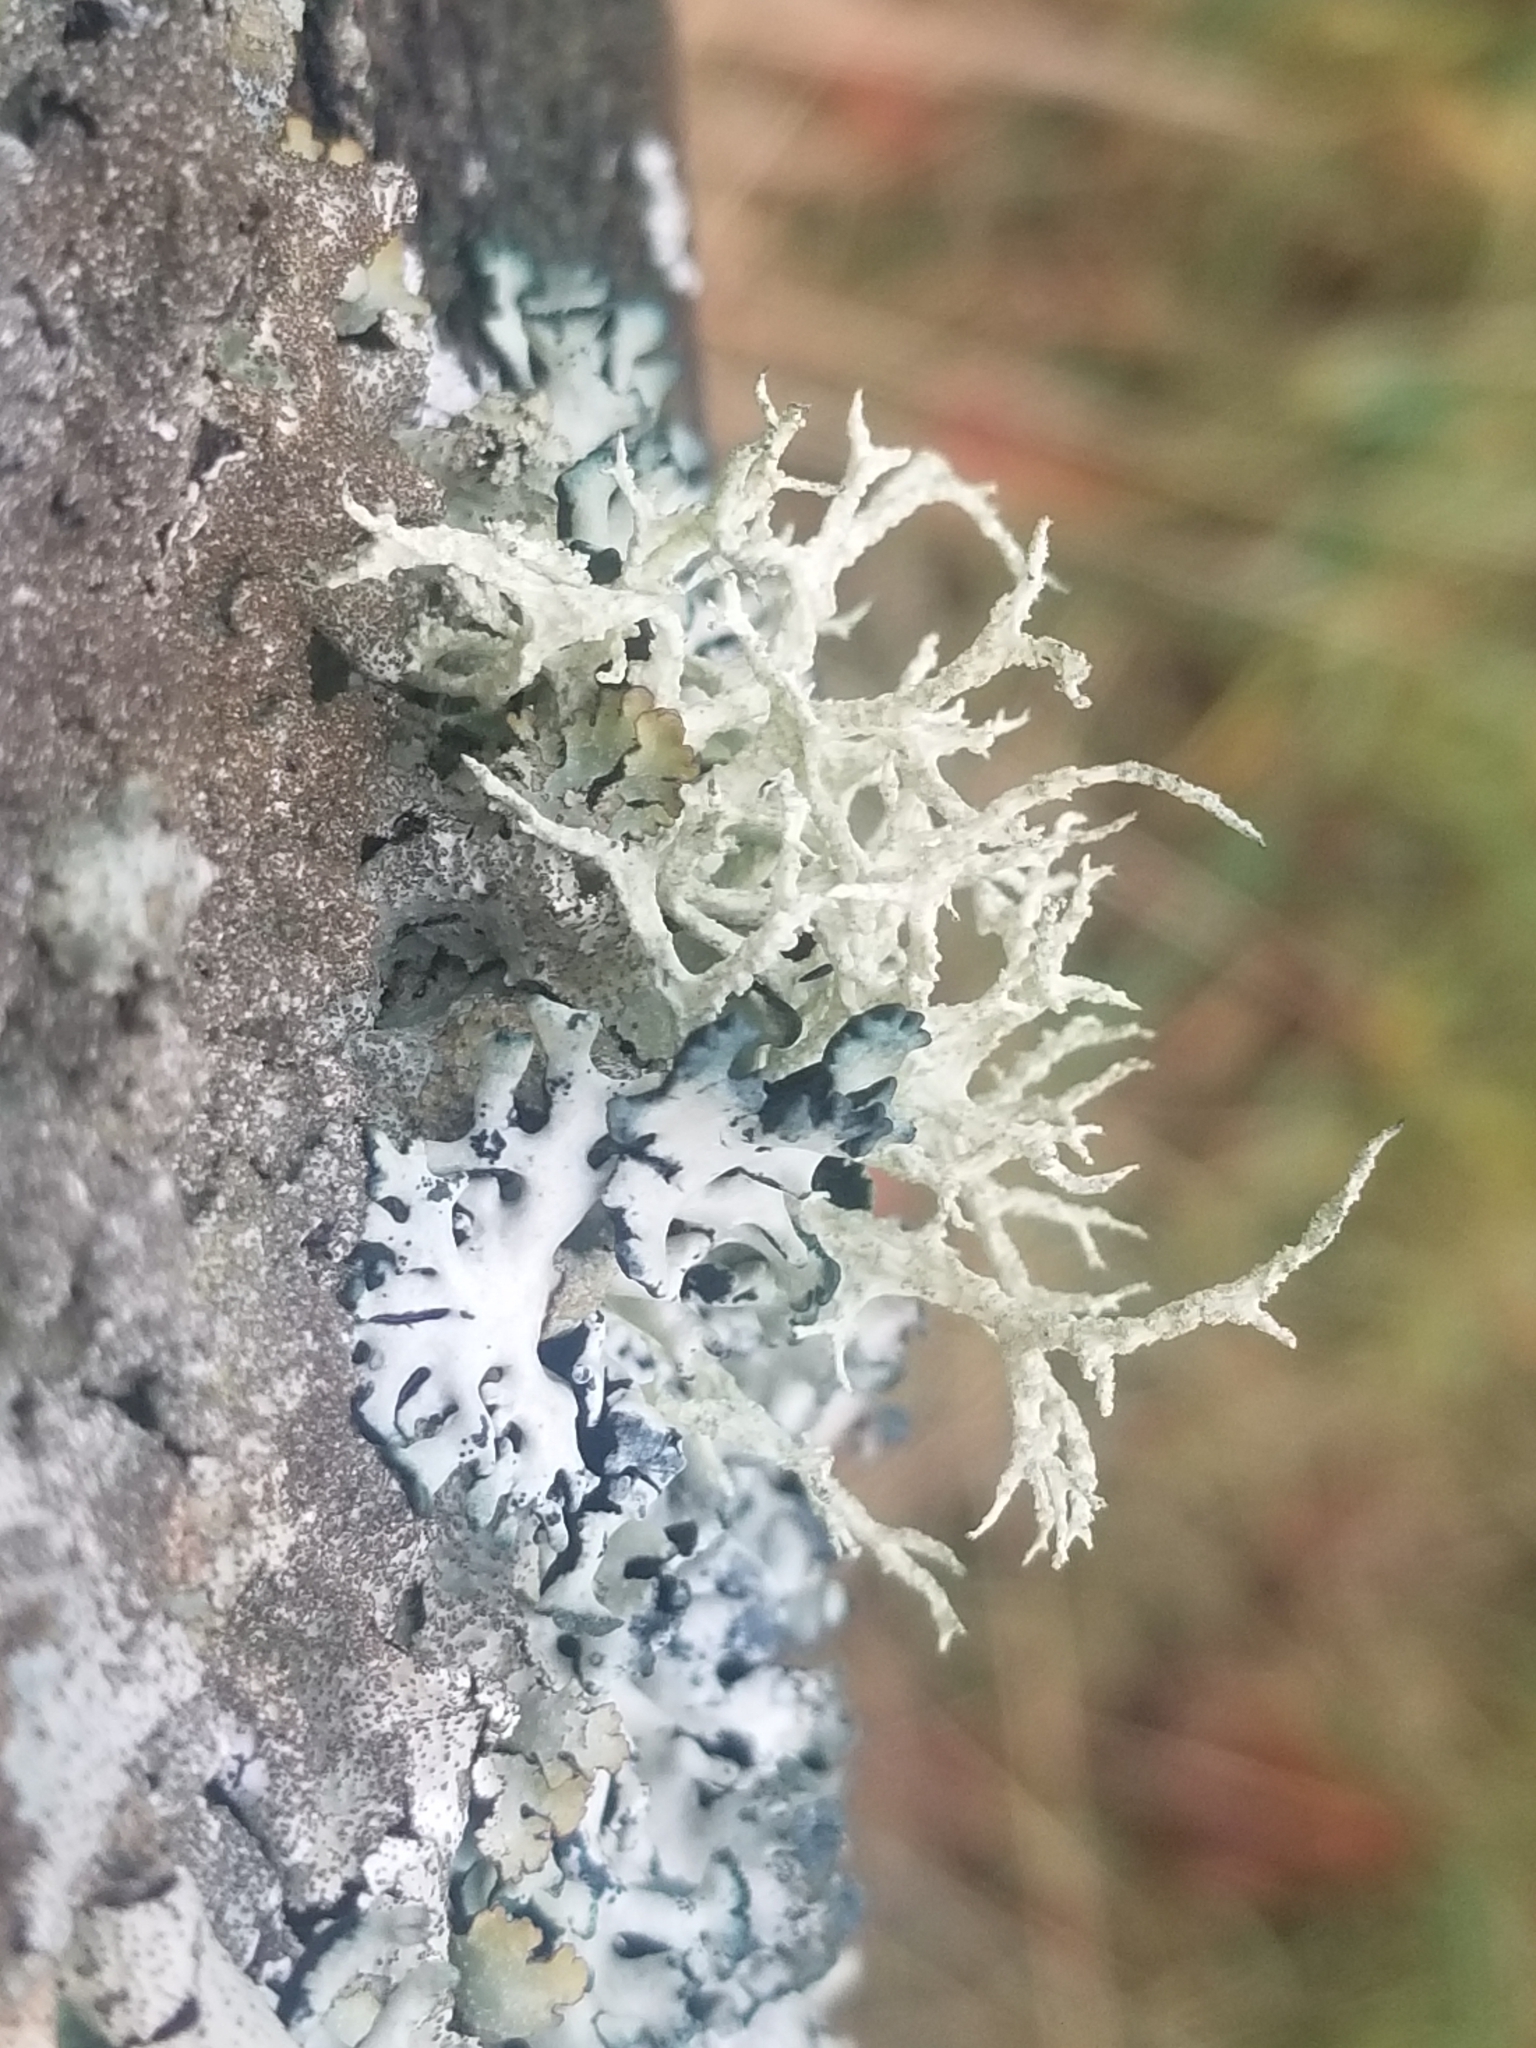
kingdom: Fungi
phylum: Ascomycota
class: Lecanoromycetes
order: Lecanorales
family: Parmeliaceae
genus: Evernia
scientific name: Evernia mesomorpha
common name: Boreal oak moss lichen
